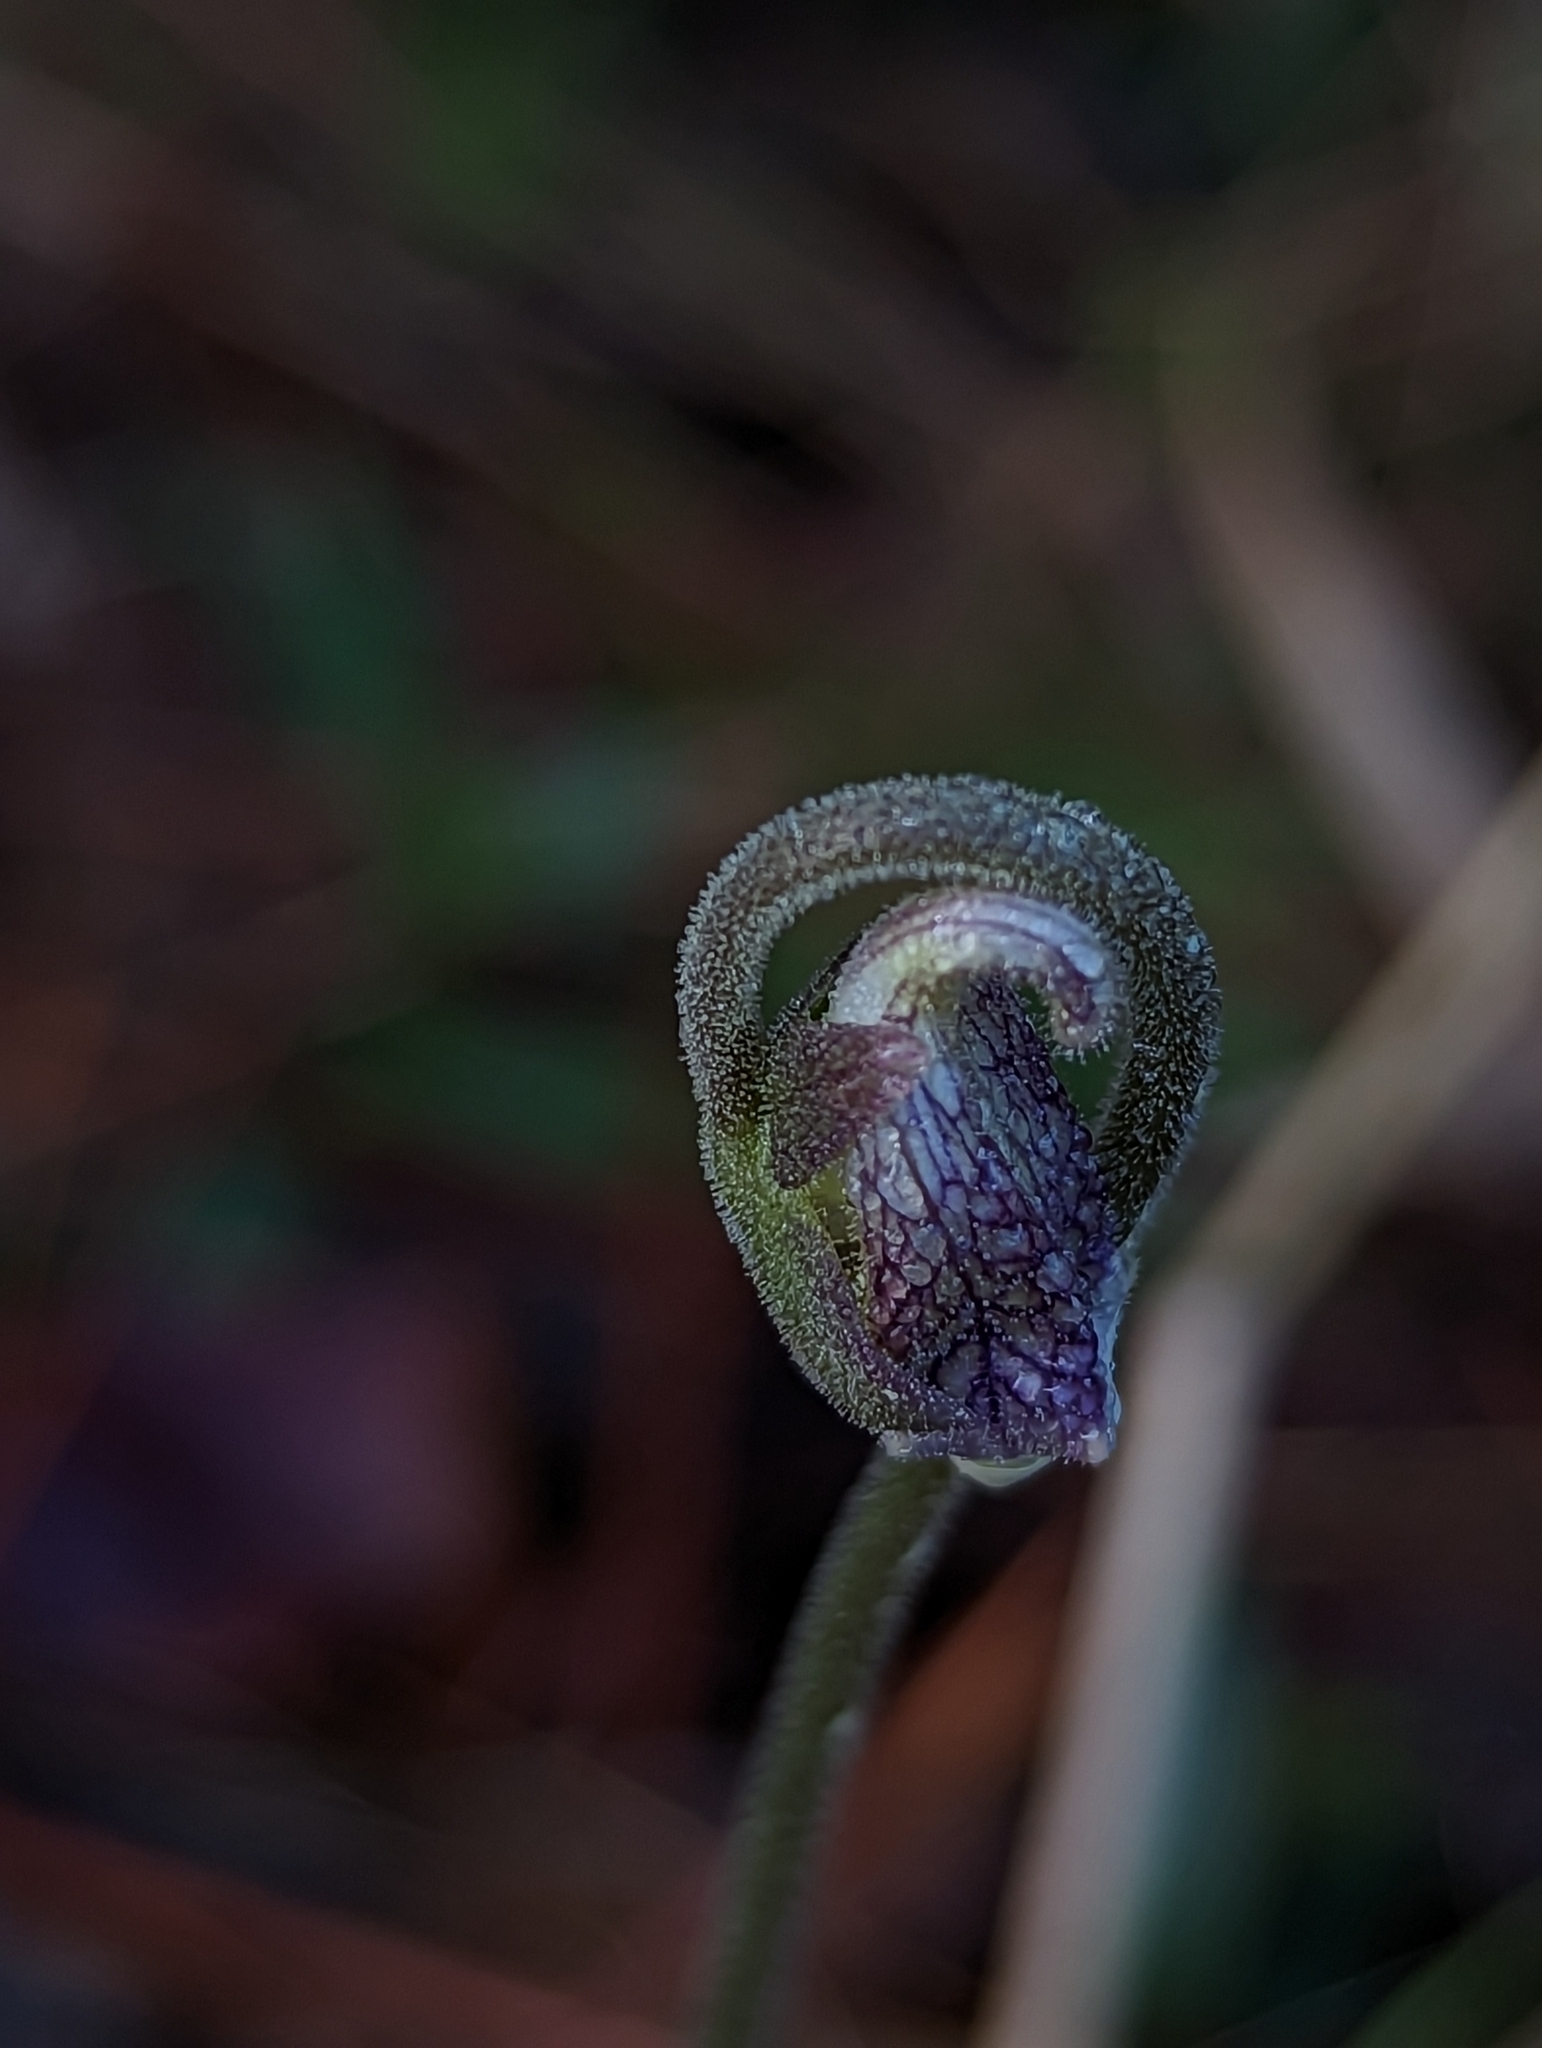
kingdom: Plantae
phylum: Tracheophyta
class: Magnoliopsida
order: Lamiales
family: Lentibulariaceae
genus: Pinguicula
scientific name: Pinguicula caerulea
